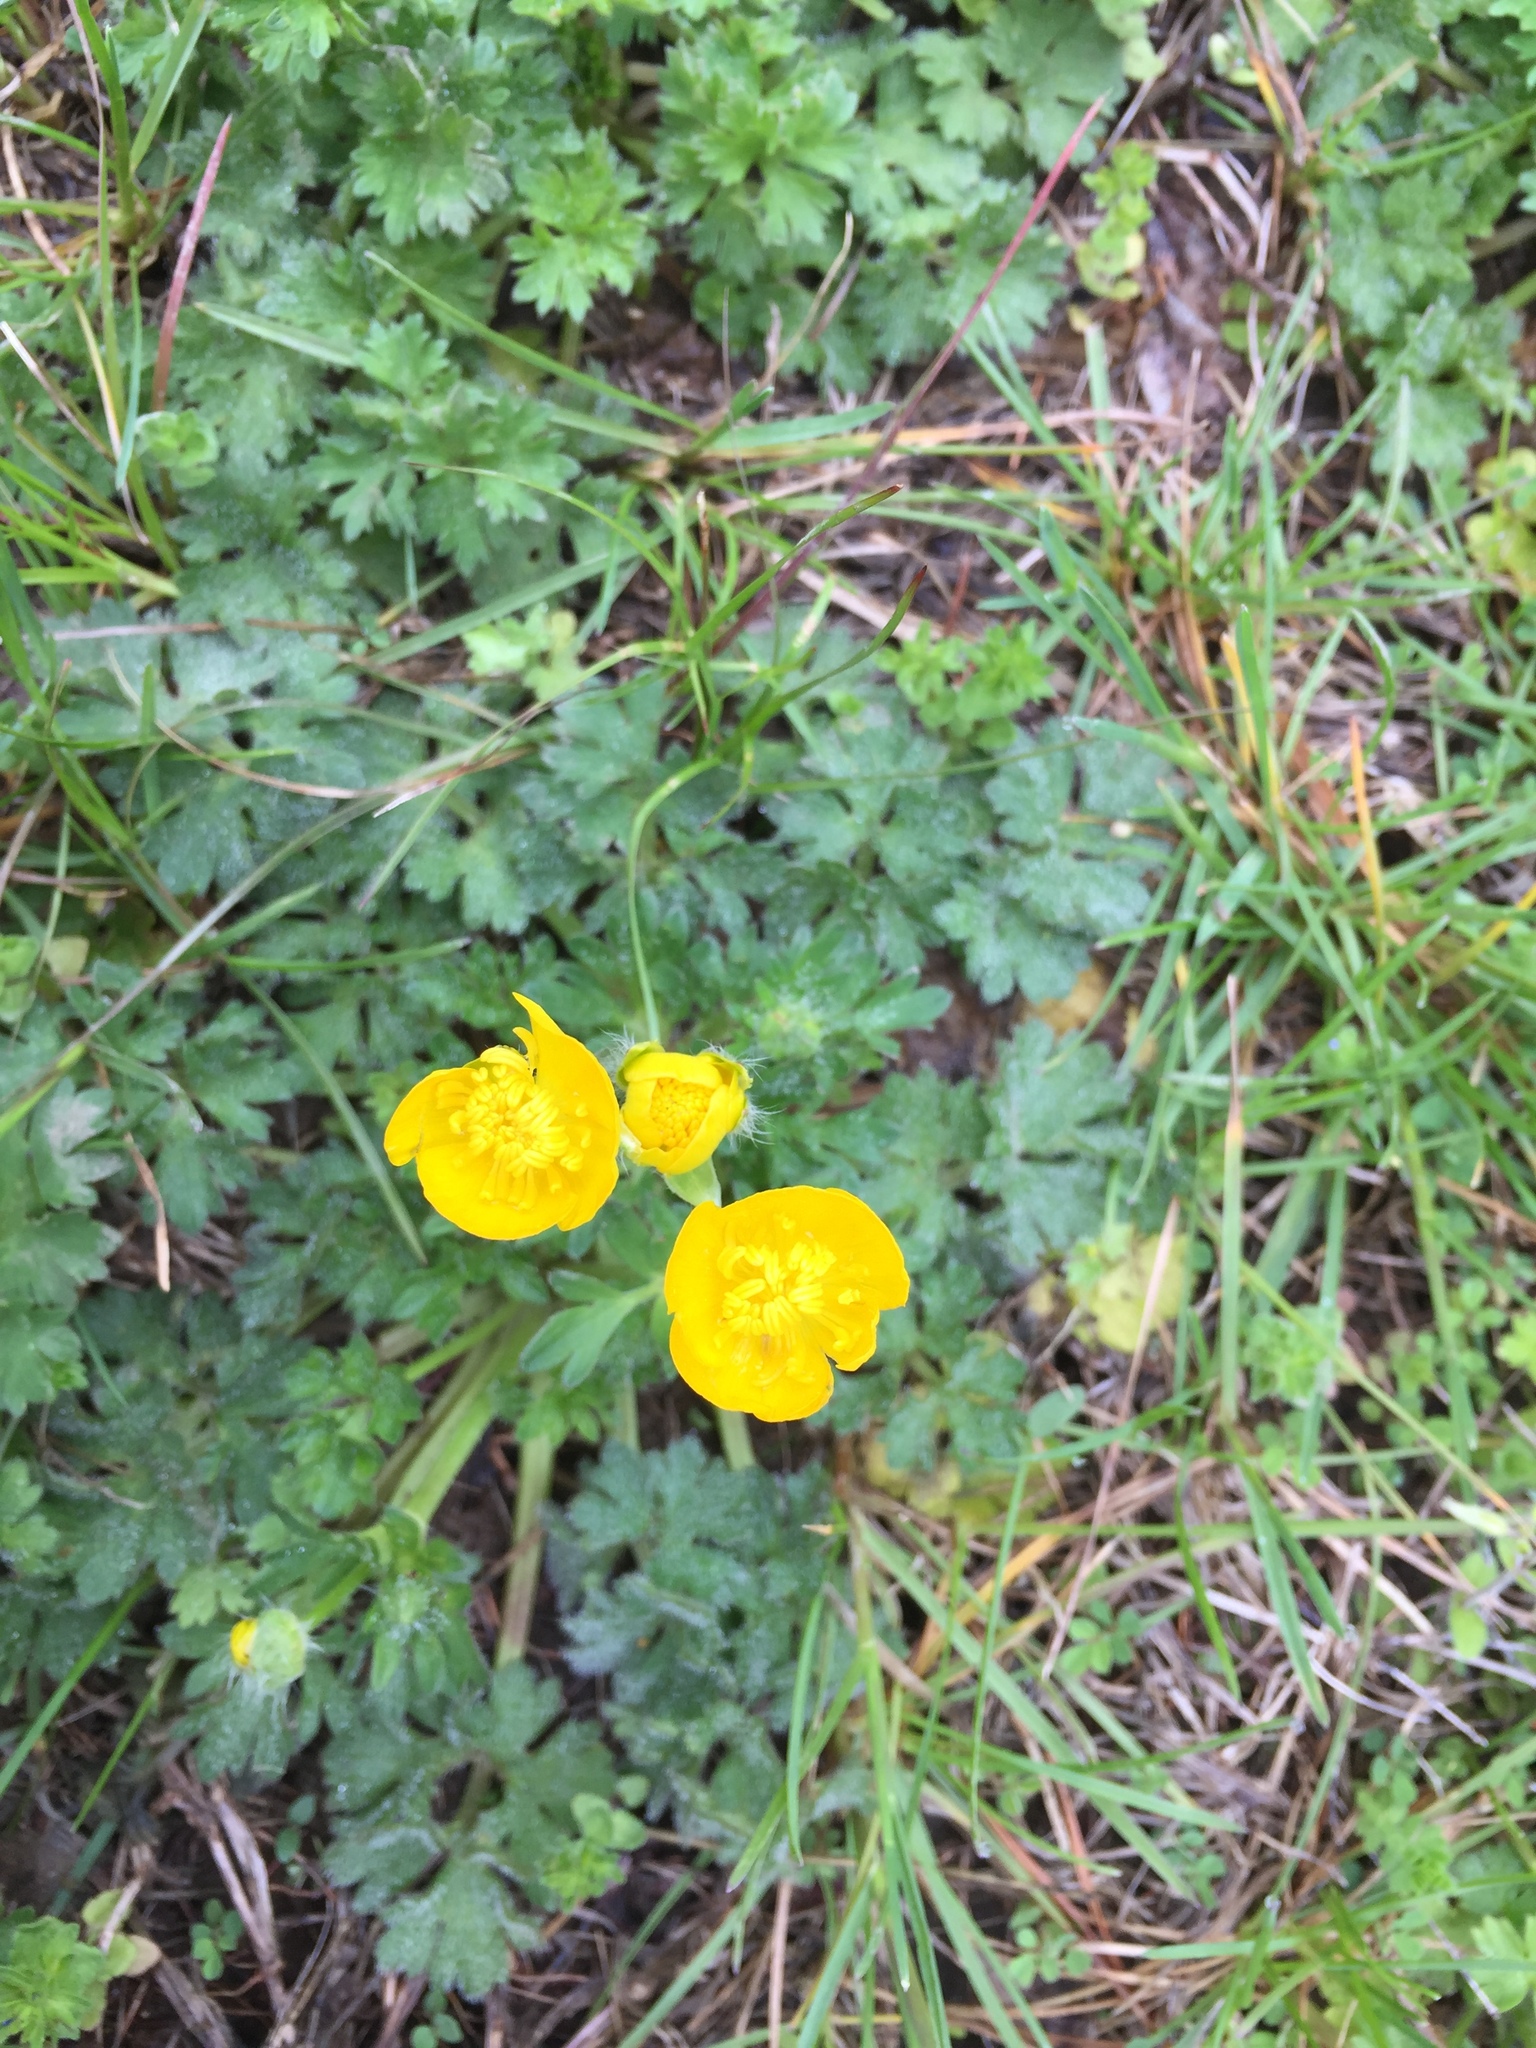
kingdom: Plantae
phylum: Tracheophyta
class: Magnoliopsida
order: Ranunculales
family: Ranunculaceae
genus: Ranunculus
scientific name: Ranunculus bulbosus
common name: Bulbous buttercup
